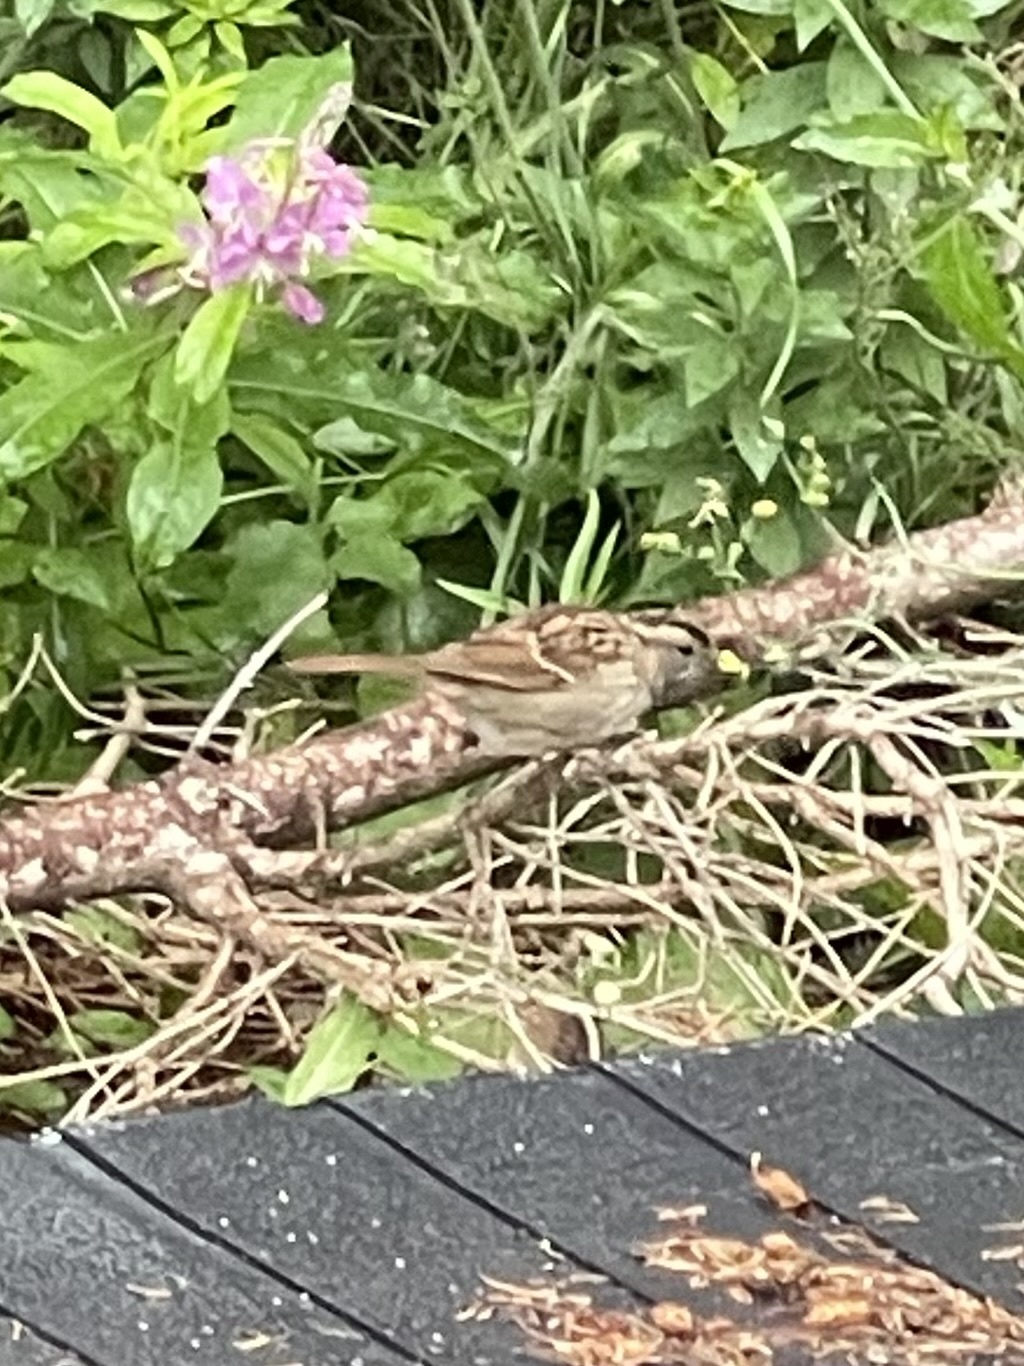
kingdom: Animalia
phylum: Chordata
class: Aves
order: Passeriformes
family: Passerellidae
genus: Zonotrichia
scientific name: Zonotrichia albicollis
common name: White-throated sparrow
